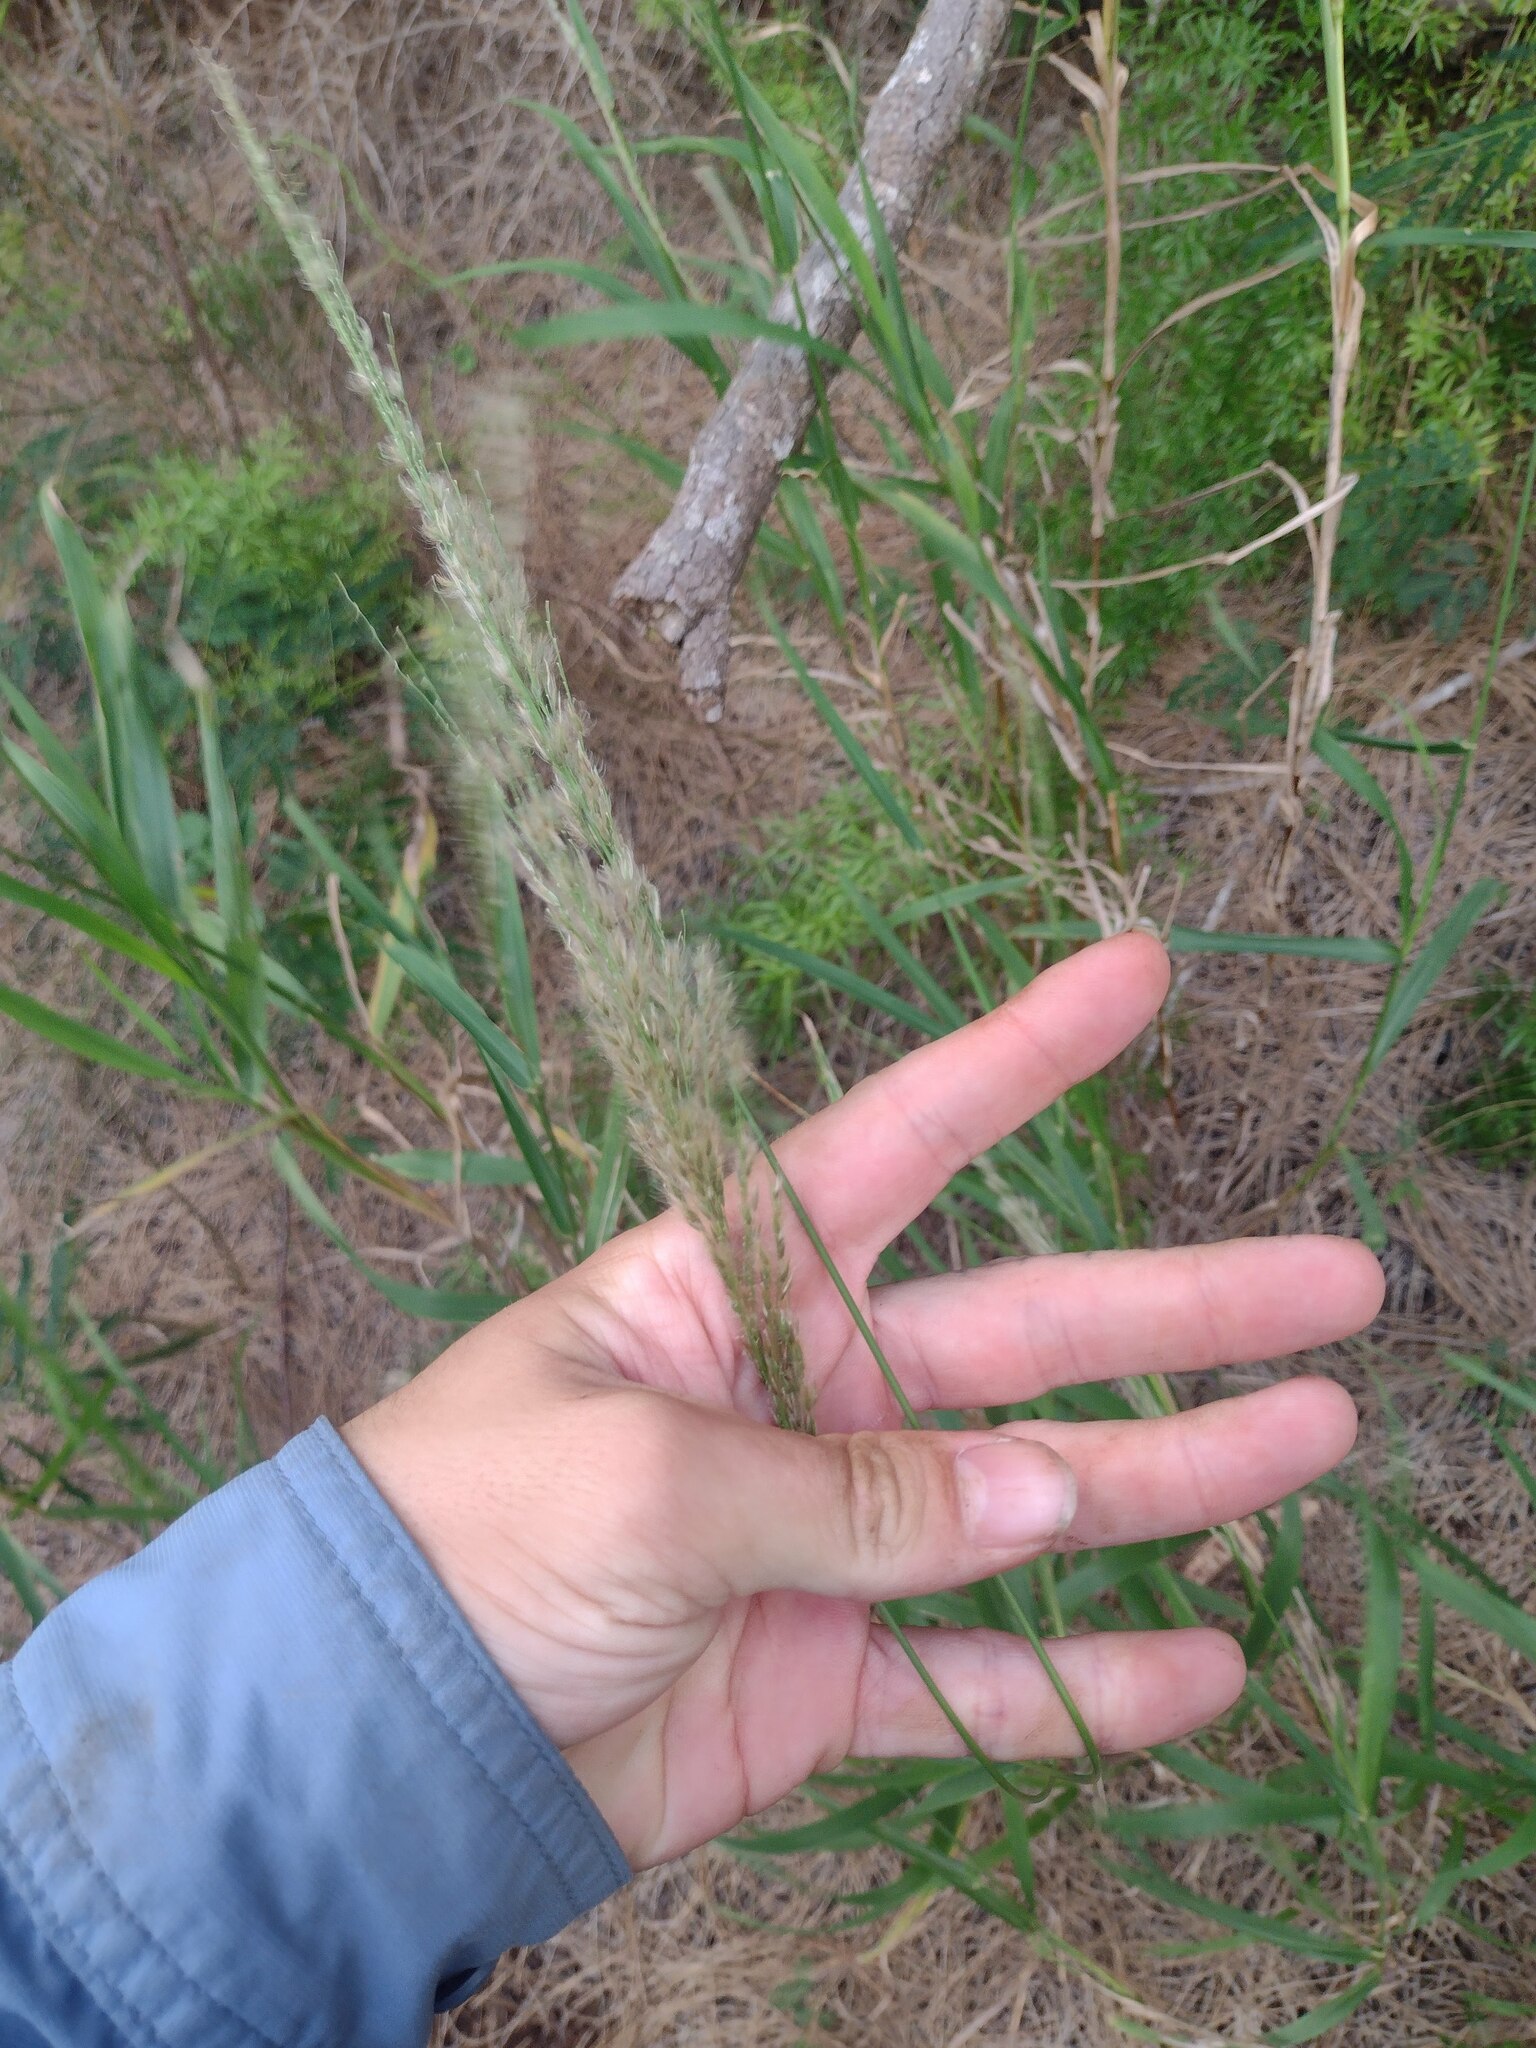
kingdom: Plantae
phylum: Tracheophyta
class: Liliopsida
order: Poales
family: Poaceae
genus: Digitaria
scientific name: Digitaria insularis
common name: Sourgrass
